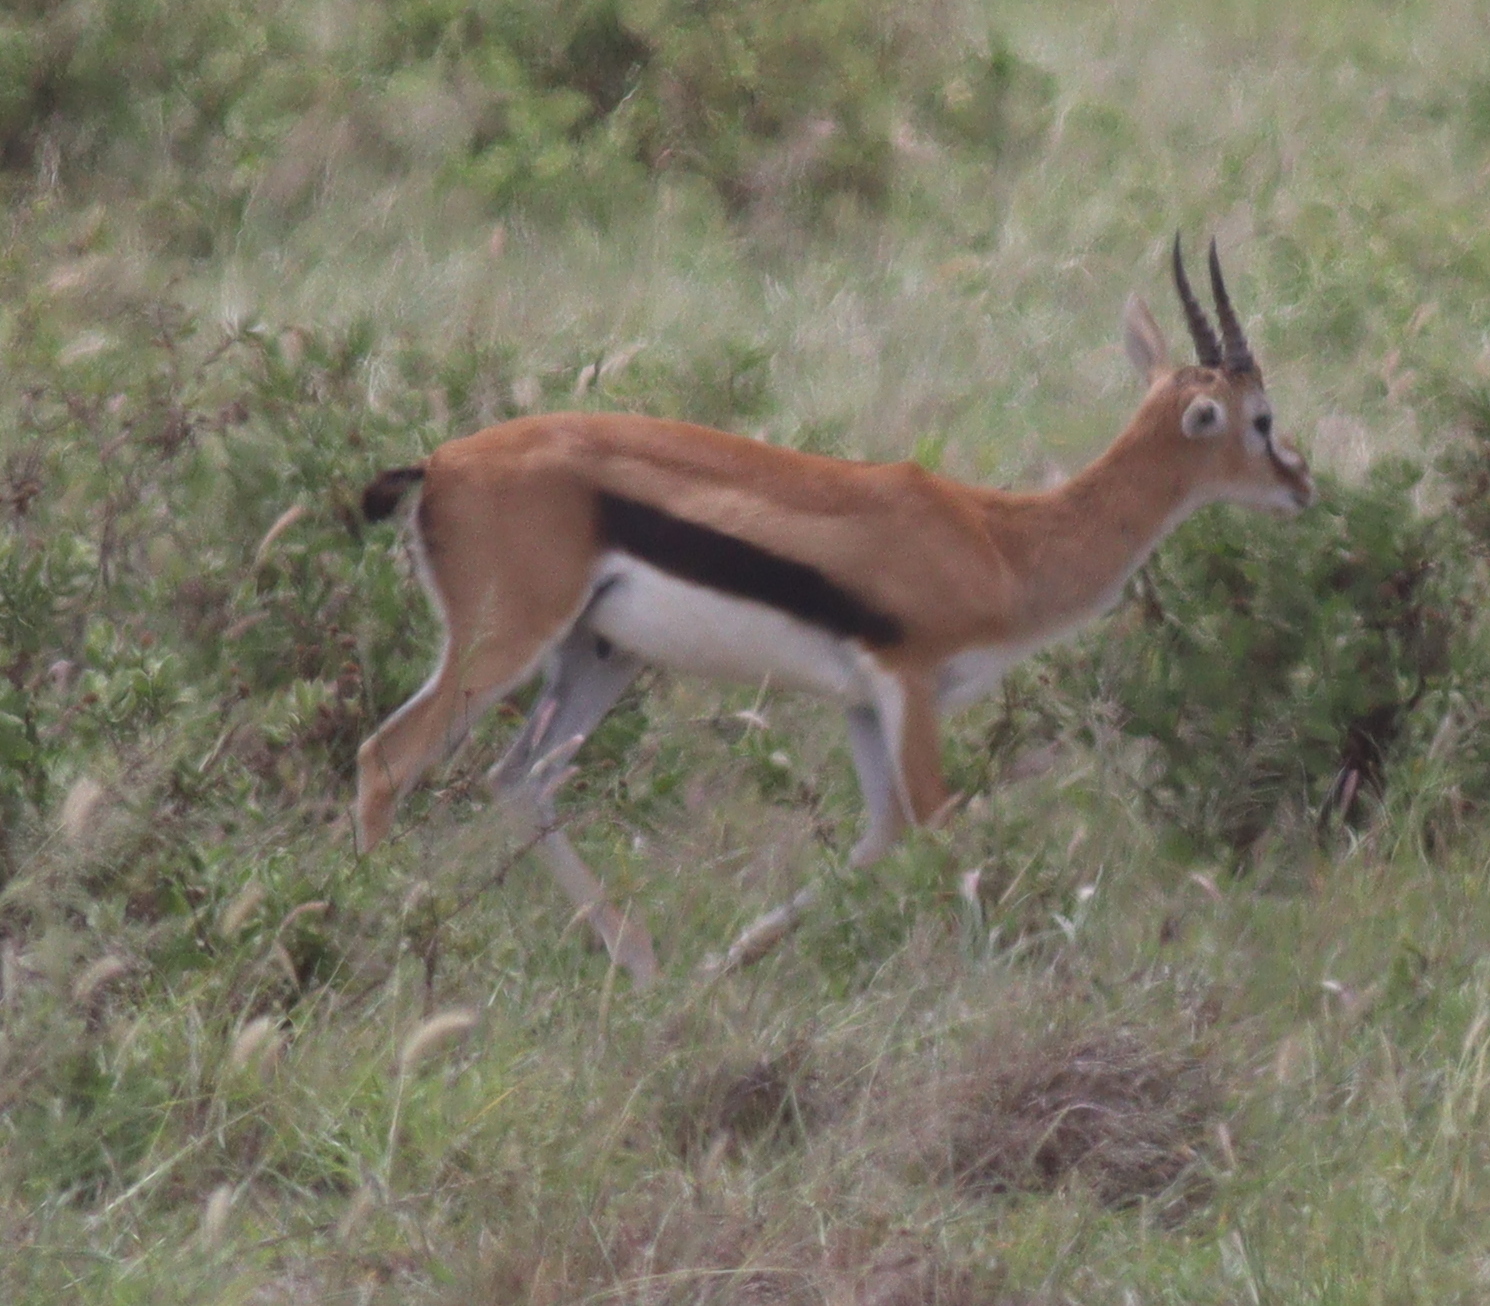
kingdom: Animalia
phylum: Chordata
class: Mammalia
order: Artiodactyla
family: Bovidae
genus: Eudorcas
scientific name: Eudorcas thomsonii
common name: Thomson's gazelle
